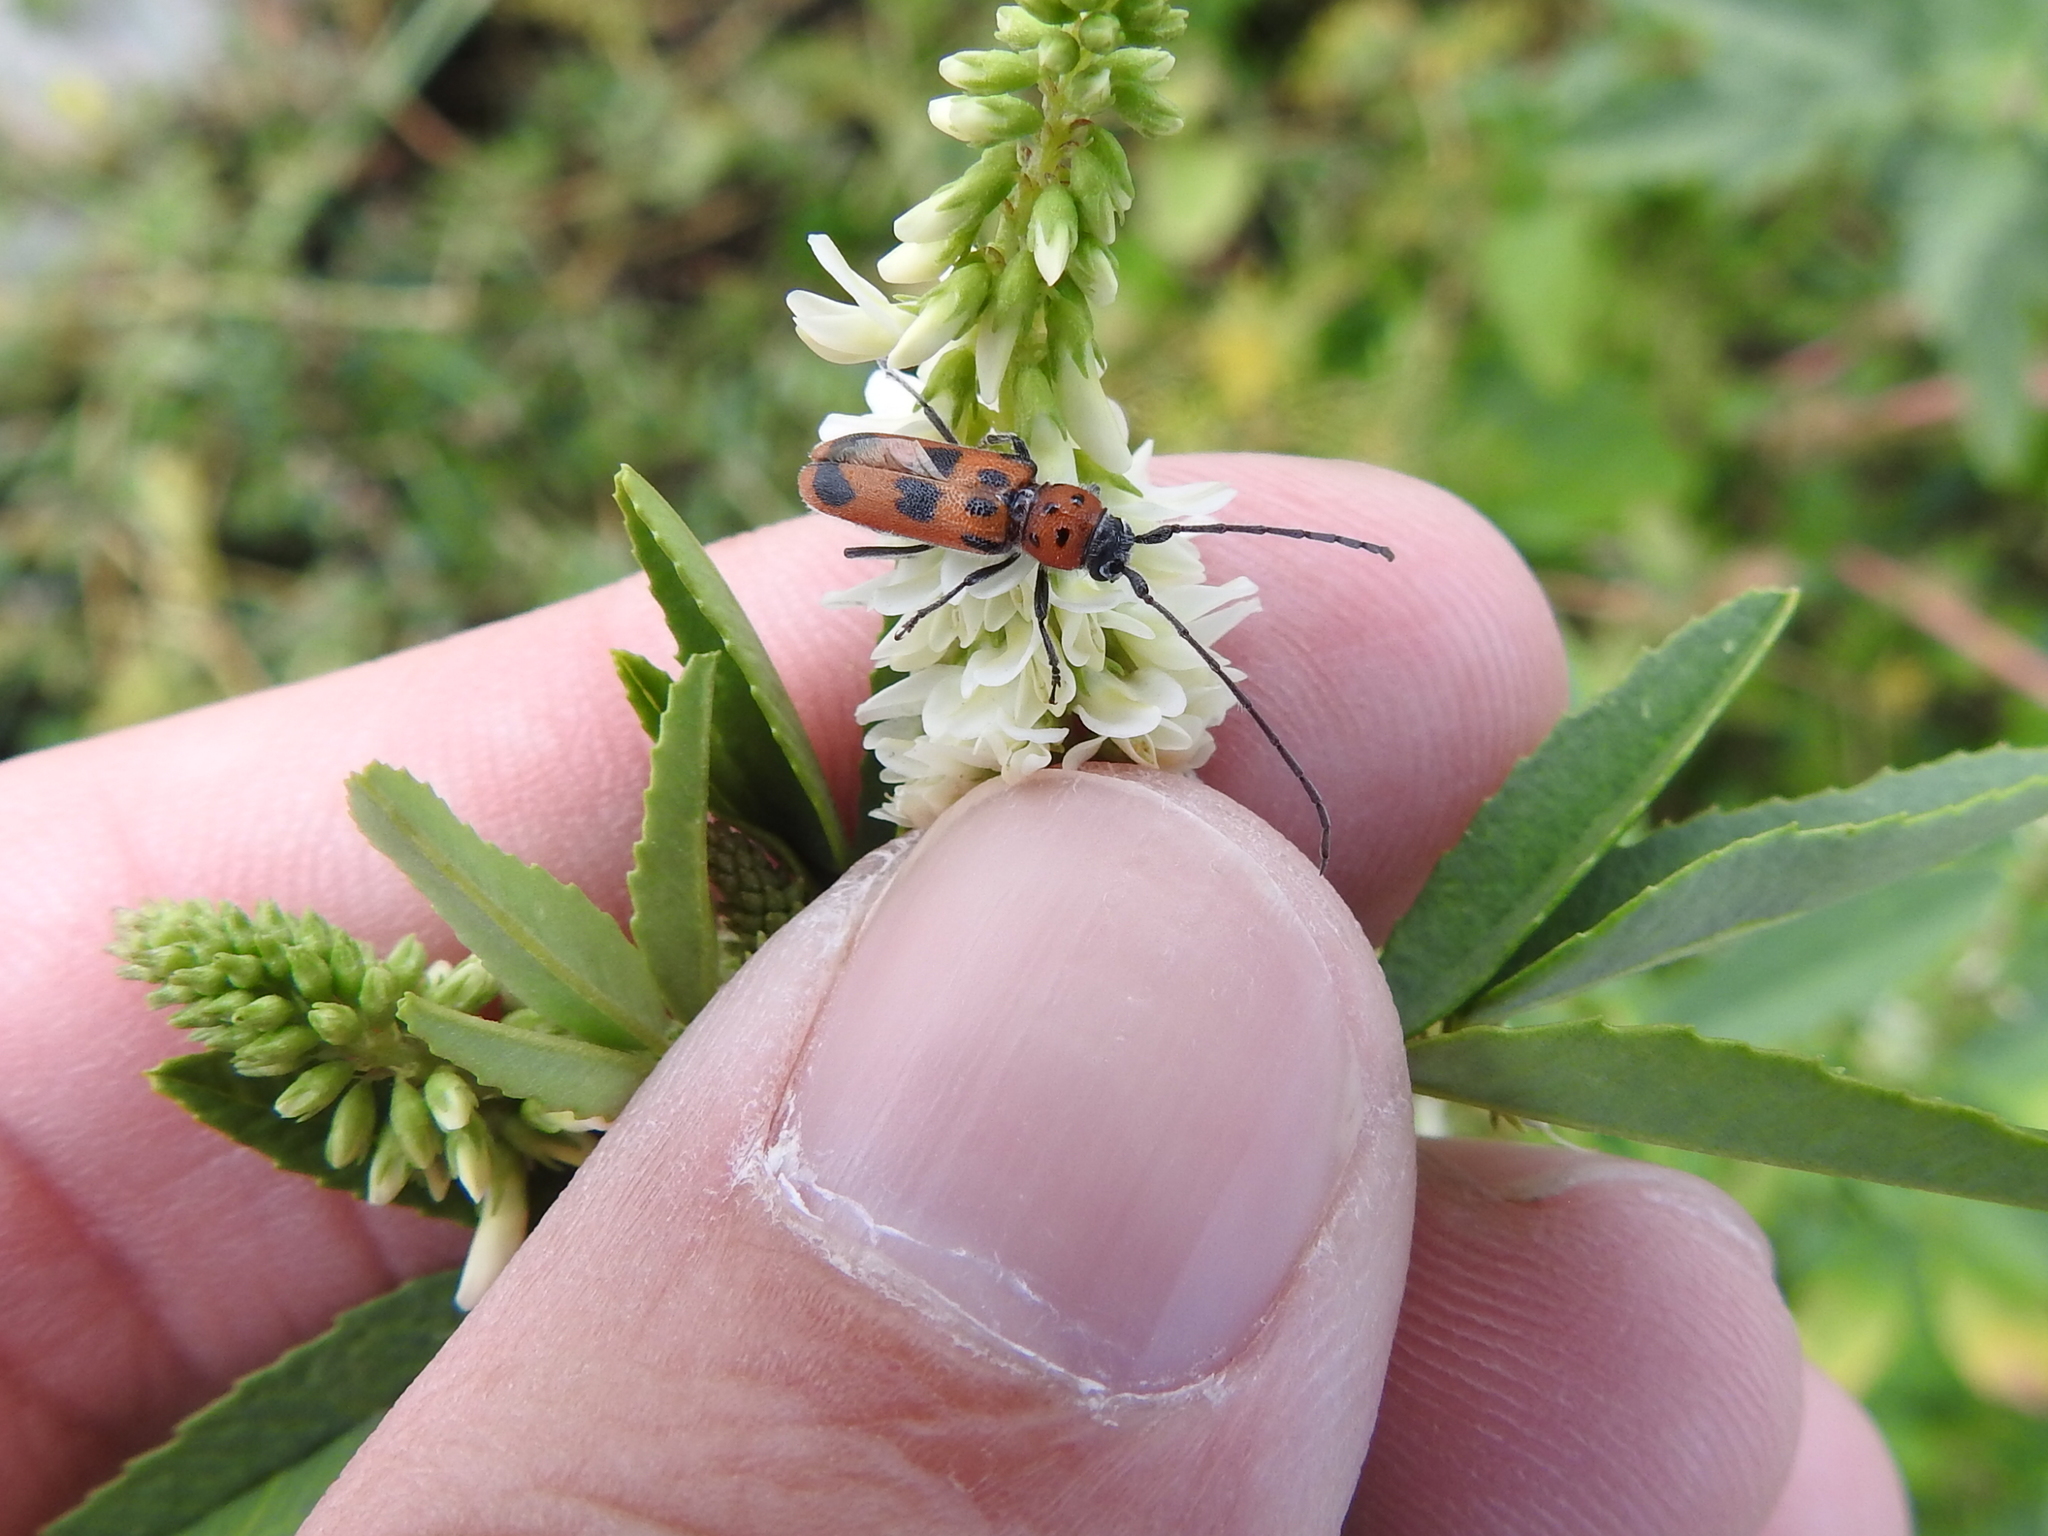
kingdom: Animalia
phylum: Arthropoda
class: Insecta
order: Coleoptera
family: Cerambycidae
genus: Tylosis
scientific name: Tylosis maculatus
